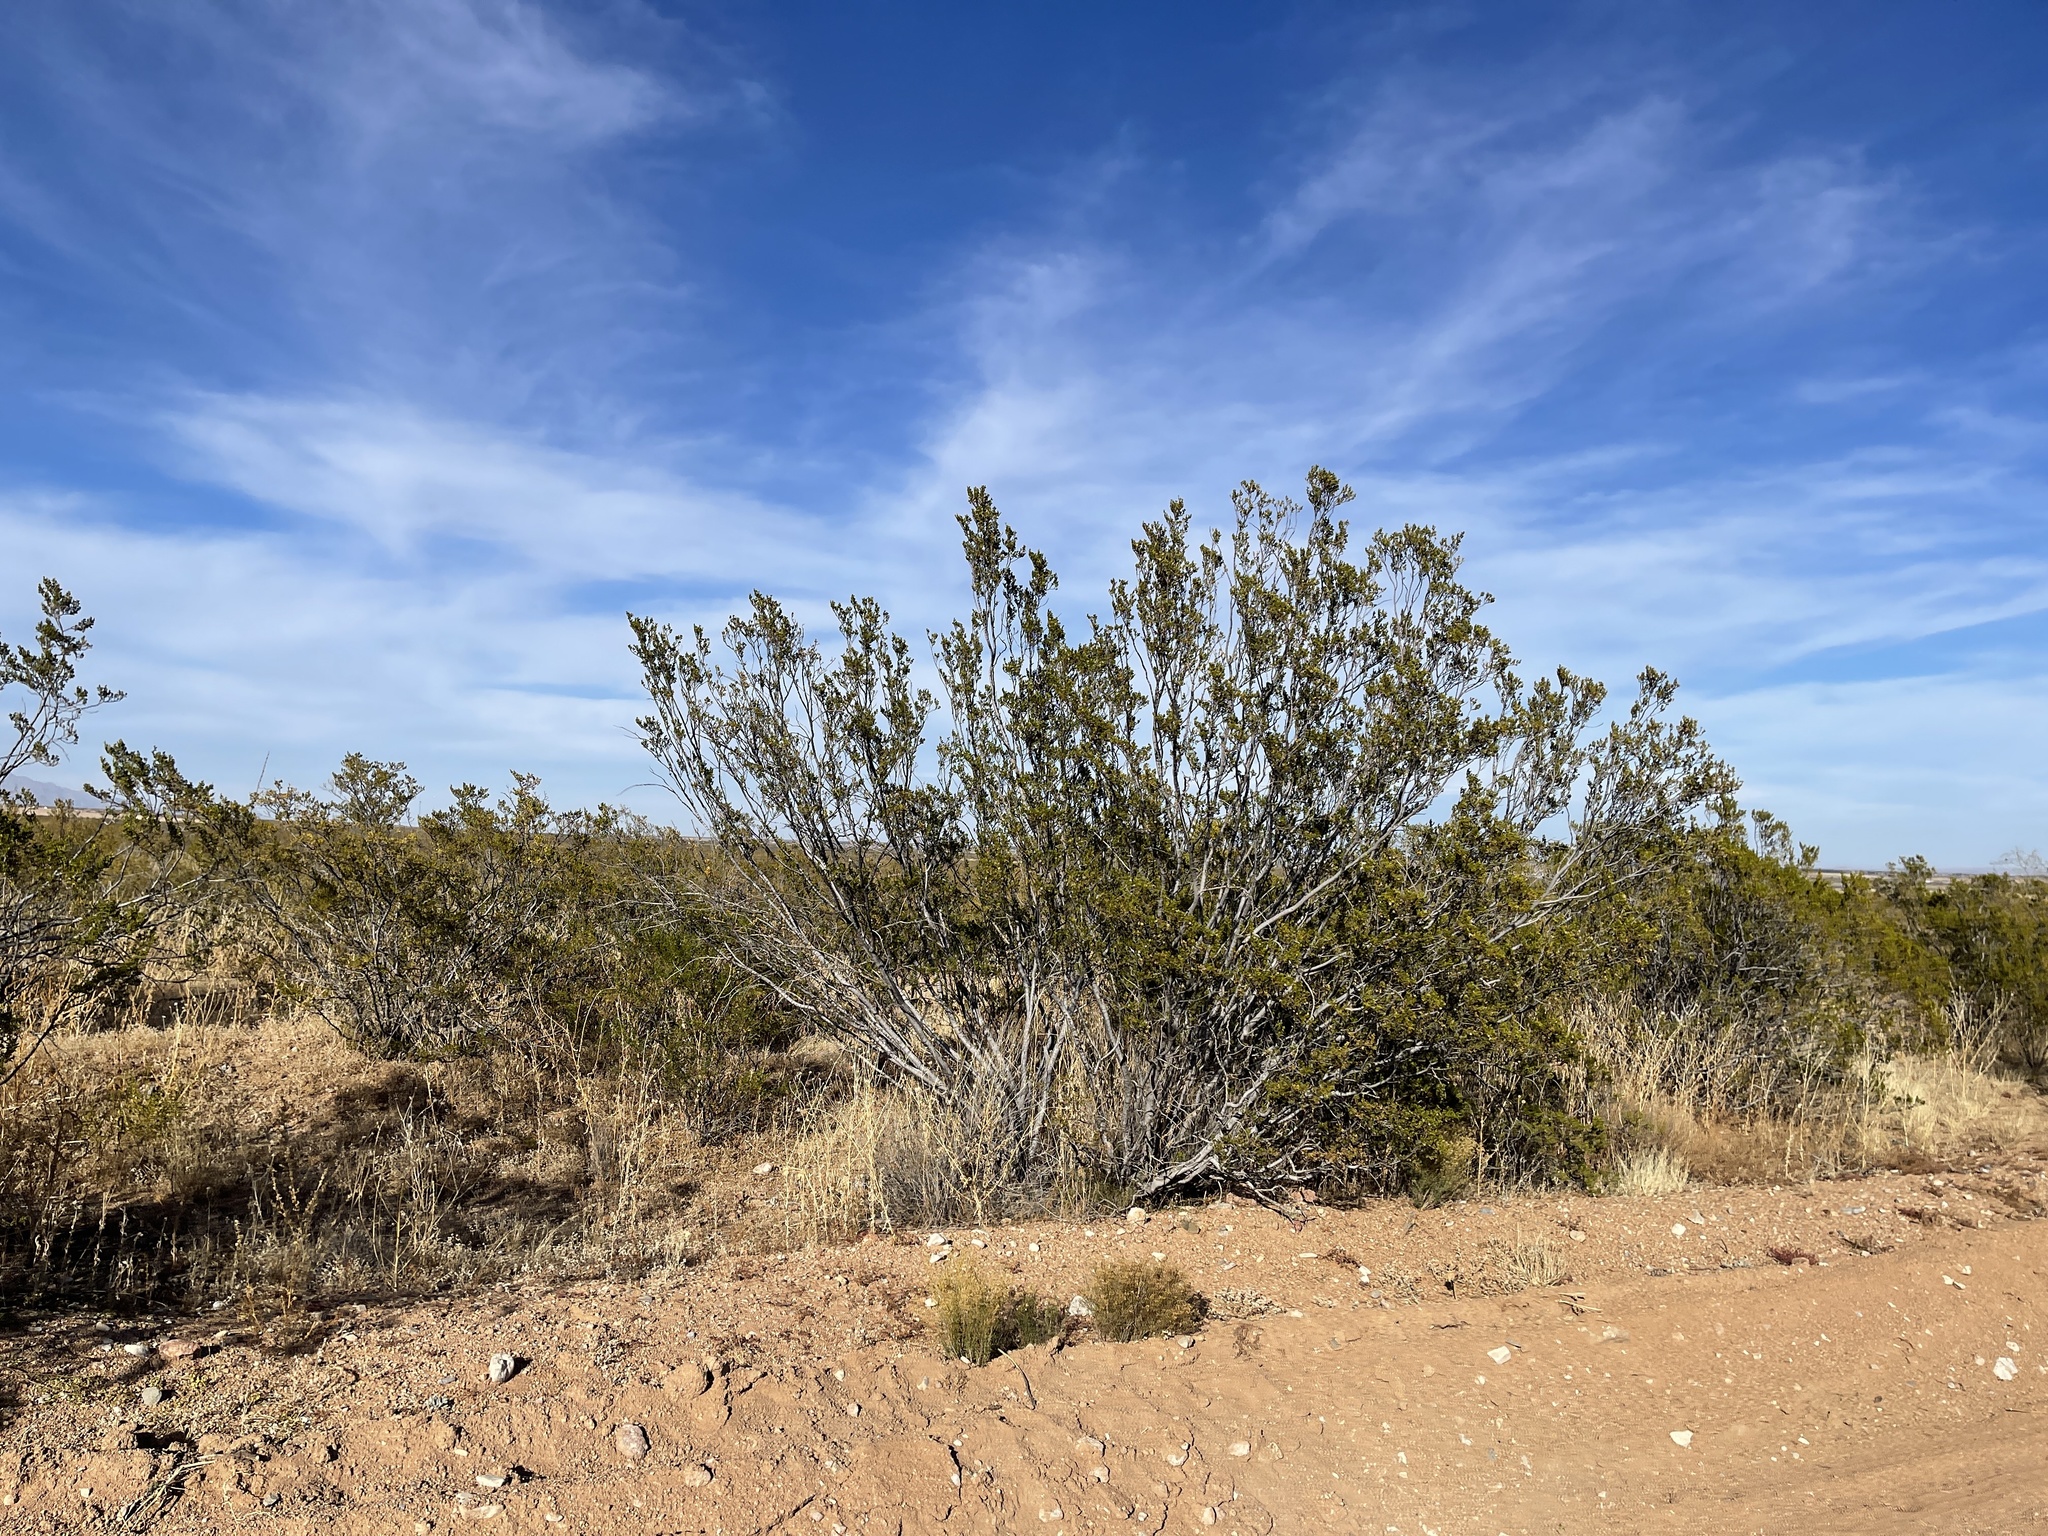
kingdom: Plantae
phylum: Tracheophyta
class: Magnoliopsida
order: Zygophyllales
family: Zygophyllaceae
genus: Larrea
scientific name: Larrea tridentata
